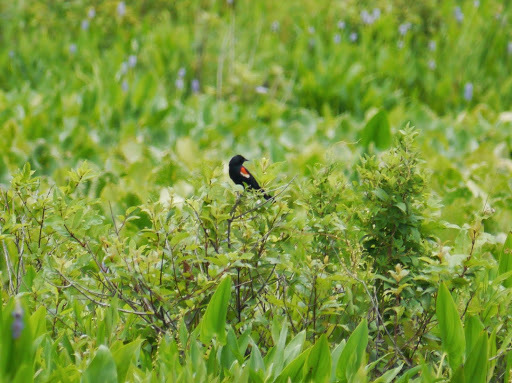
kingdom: Animalia
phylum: Chordata
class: Aves
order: Passeriformes
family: Icteridae
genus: Agelaius
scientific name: Agelaius phoeniceus
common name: Red-winged blackbird
